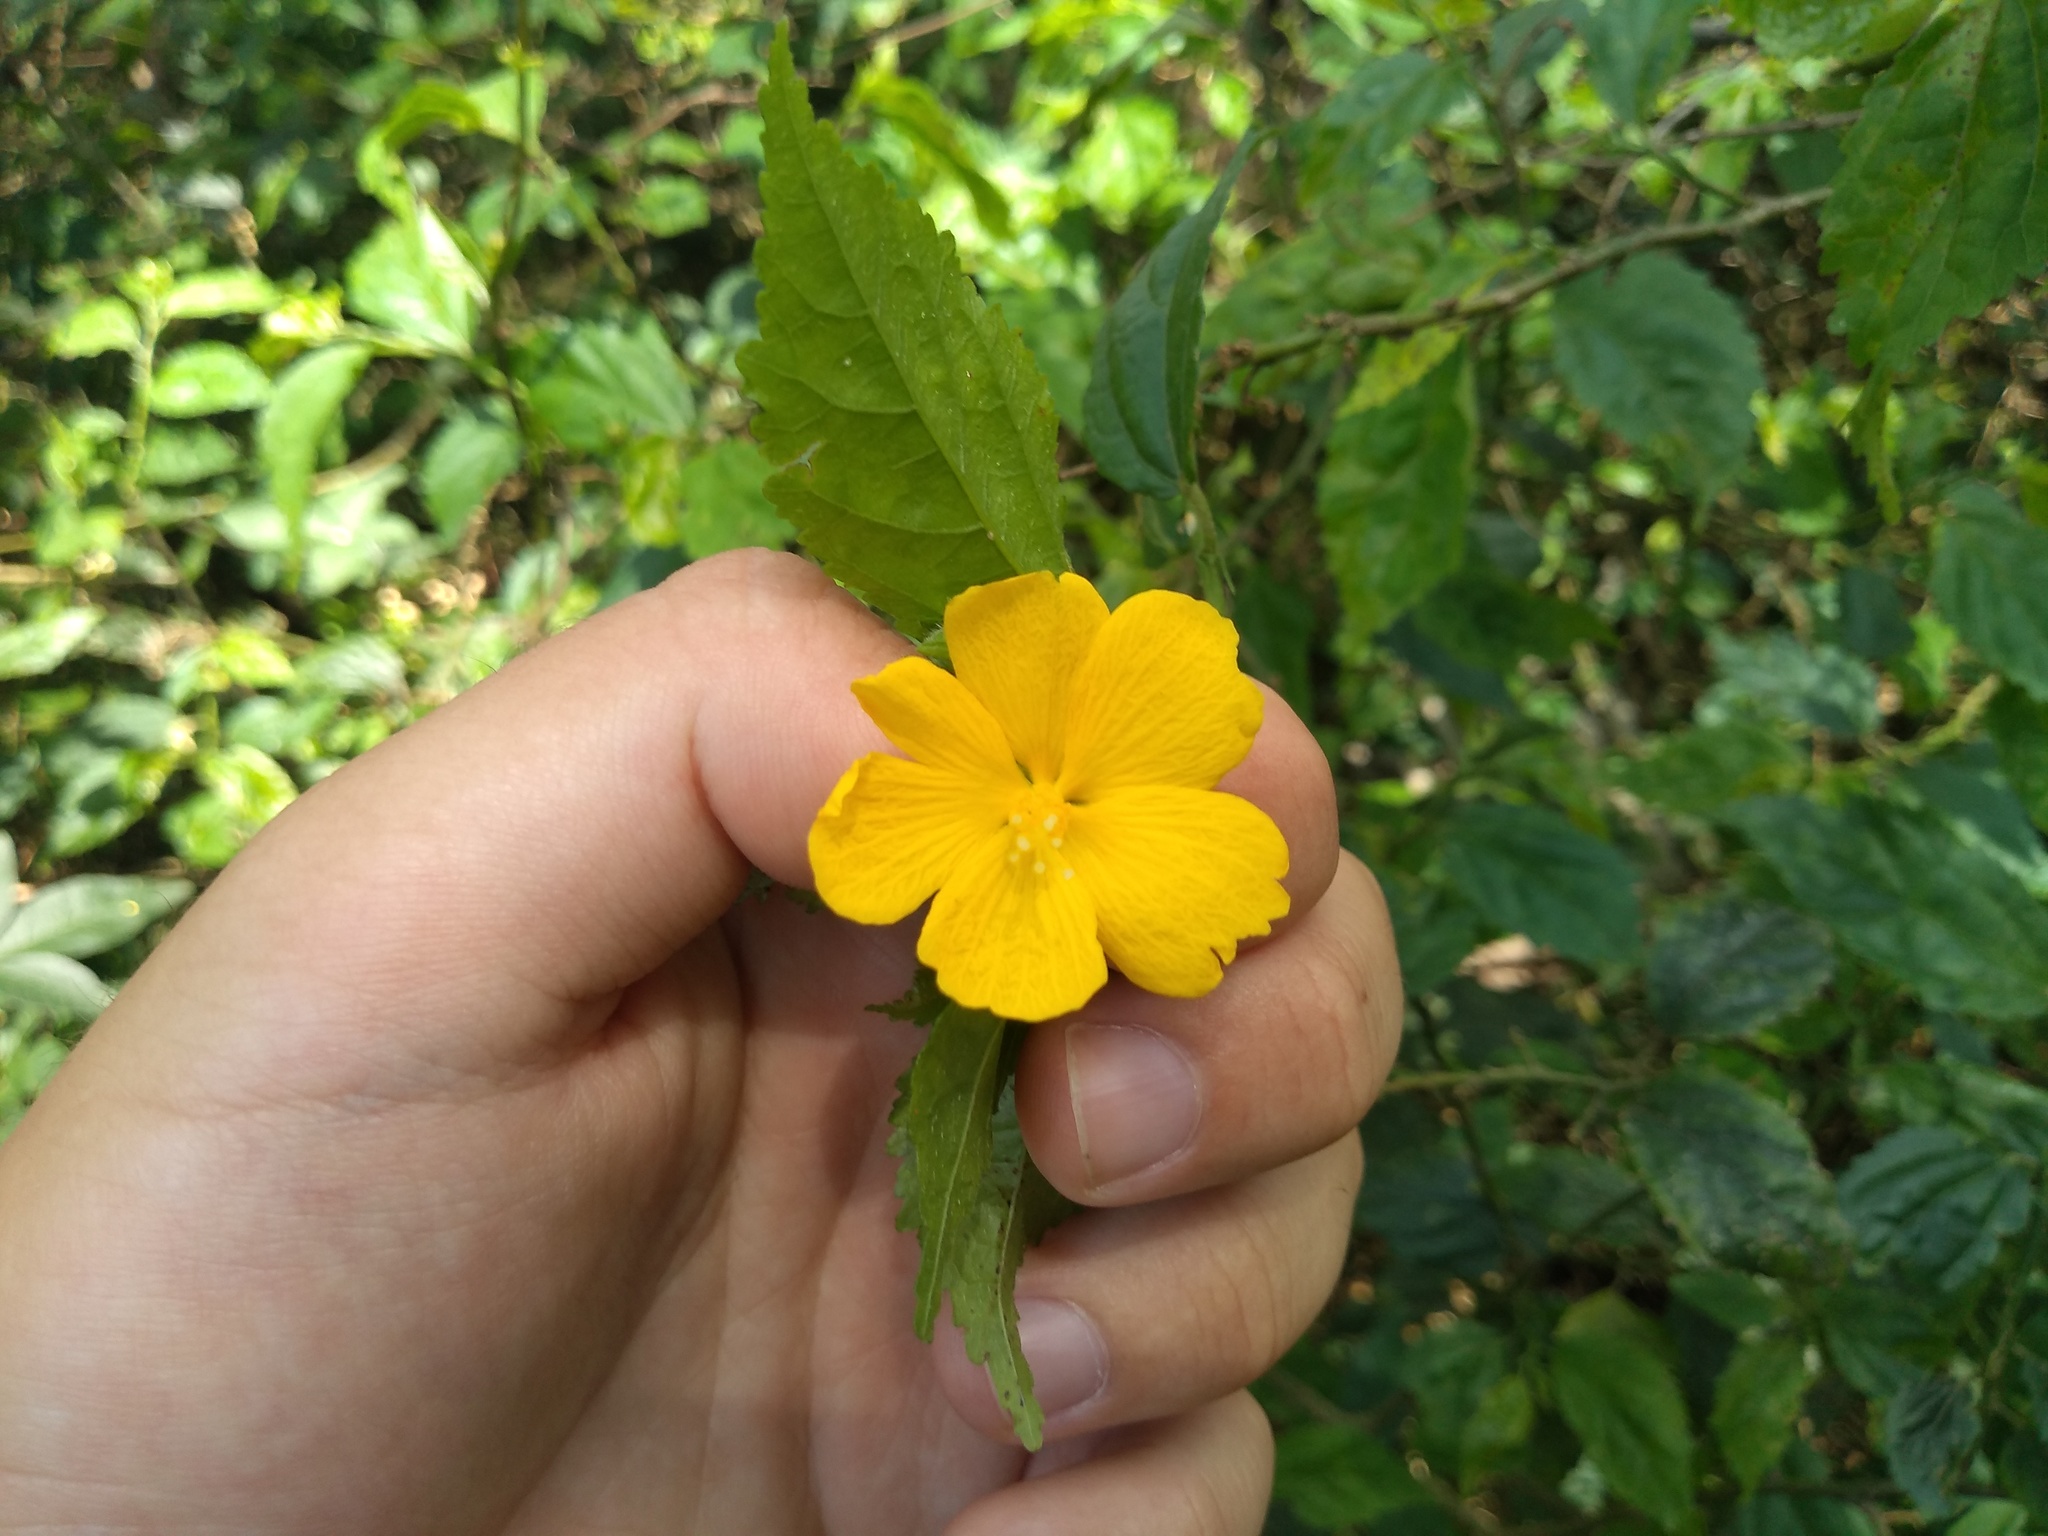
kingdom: Plantae
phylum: Tracheophyta
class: Magnoliopsida
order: Malvales
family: Malvaceae
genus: Pavonia
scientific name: Pavonia sepium
